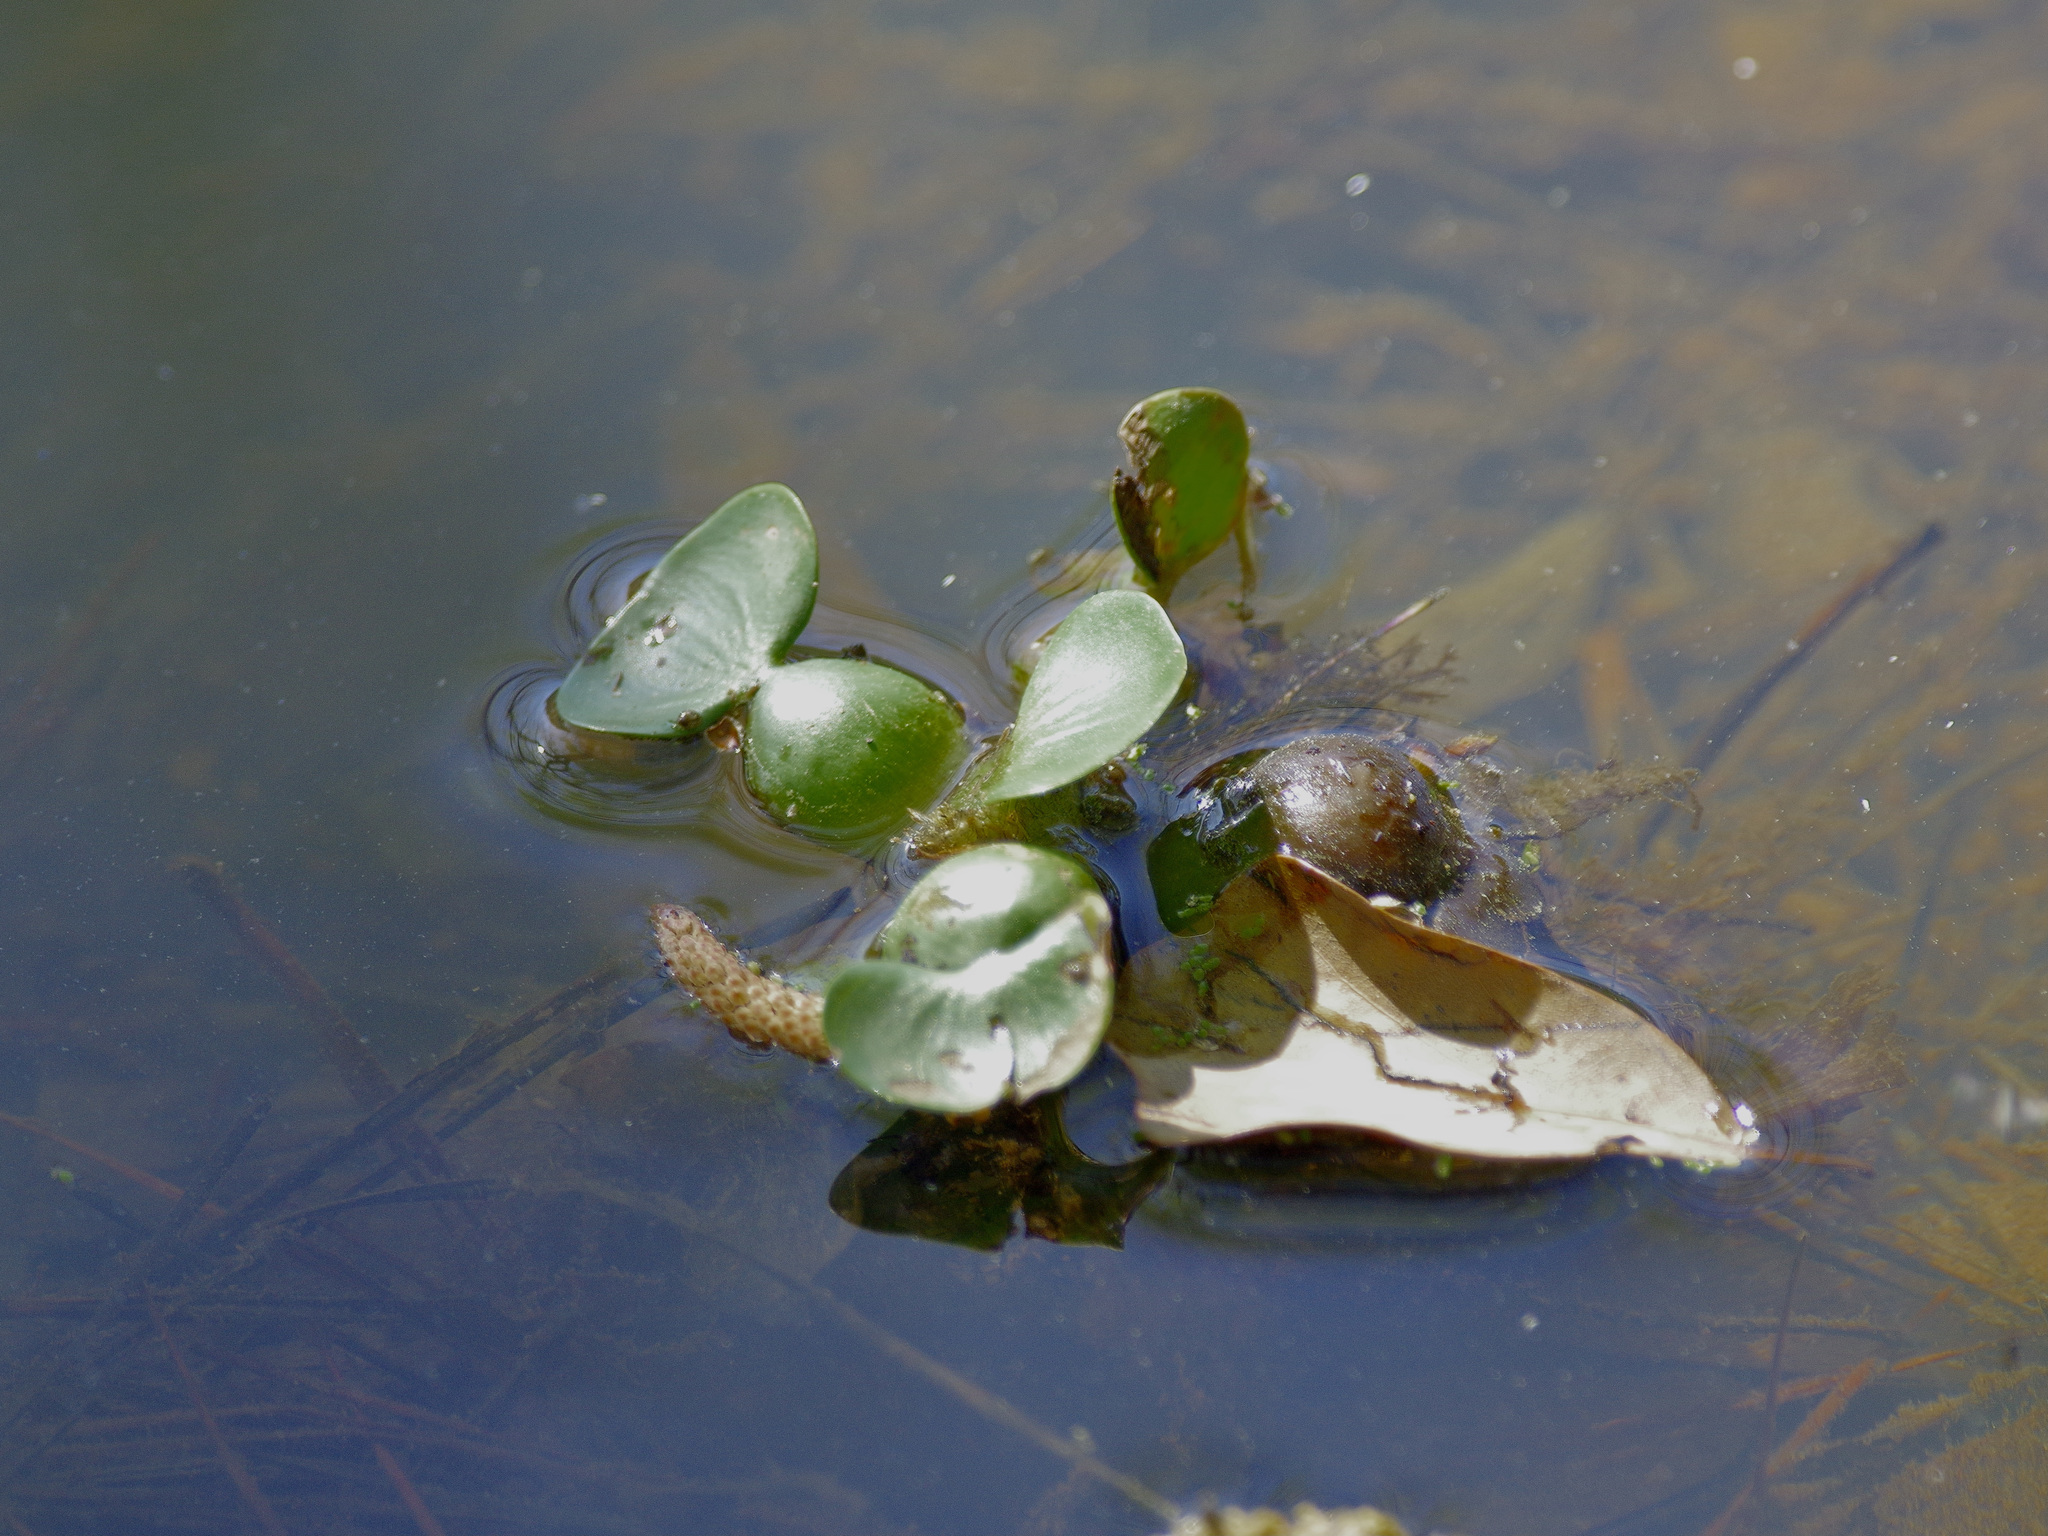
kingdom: Plantae
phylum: Tracheophyta
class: Liliopsida
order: Commelinales
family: Pontederiaceae
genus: Pontederia
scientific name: Pontederia crassipes
